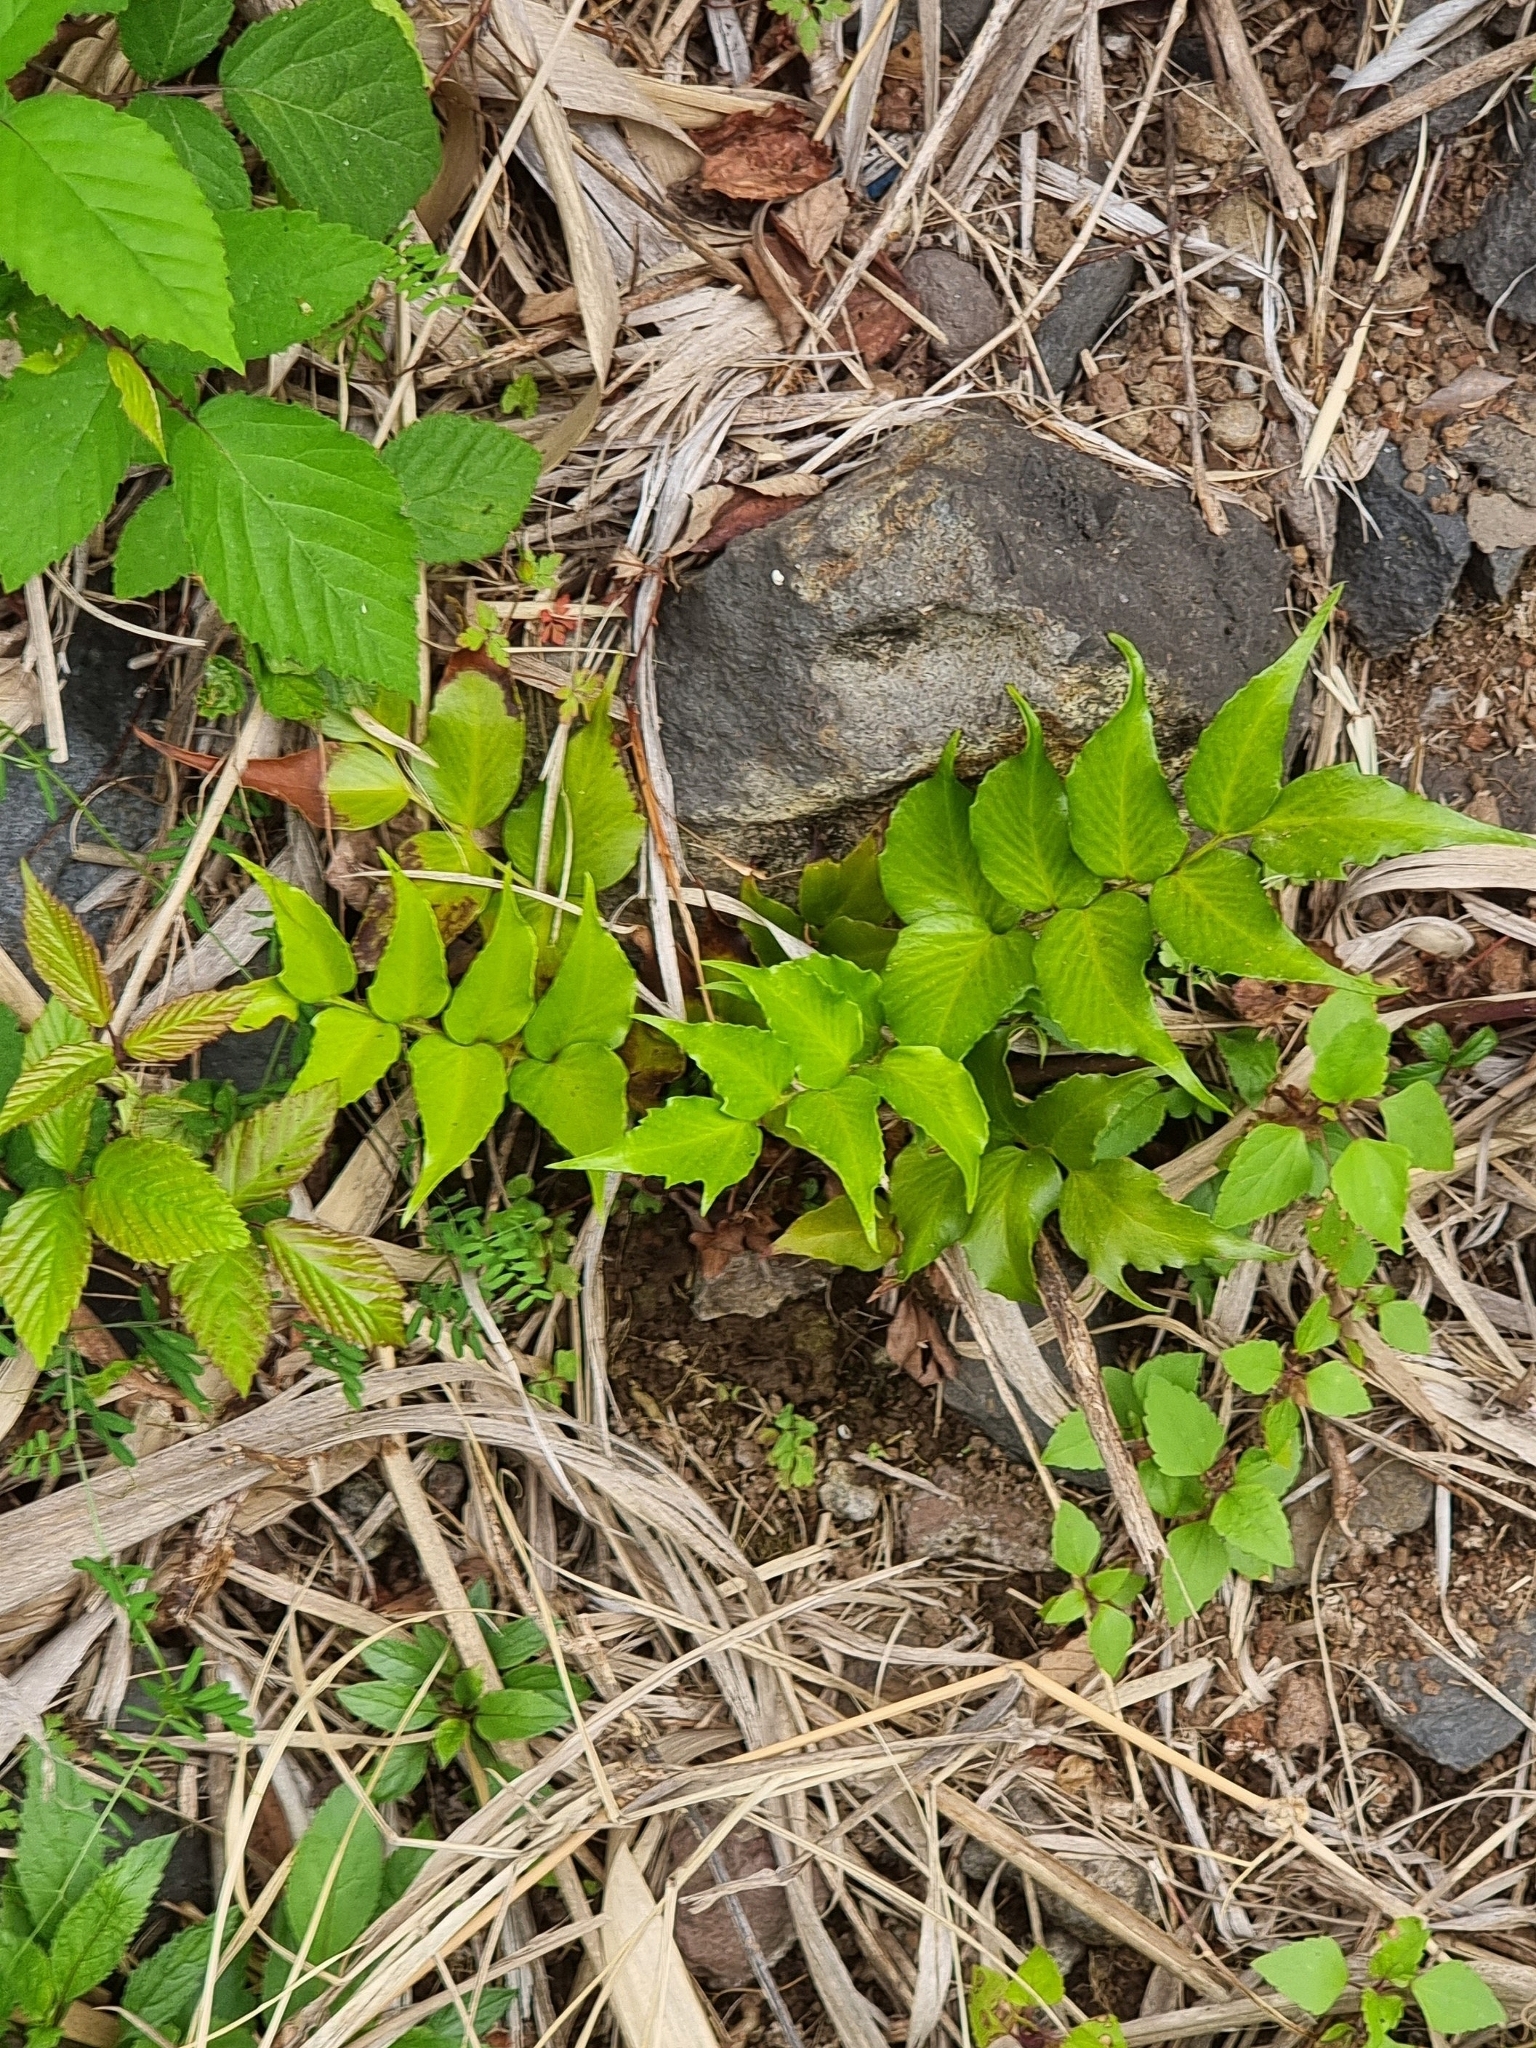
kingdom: Plantae
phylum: Tracheophyta
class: Polypodiopsida
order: Polypodiales
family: Dryopteridaceae
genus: Cyrtomium
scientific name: Cyrtomium falcatum
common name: House holly-fern
